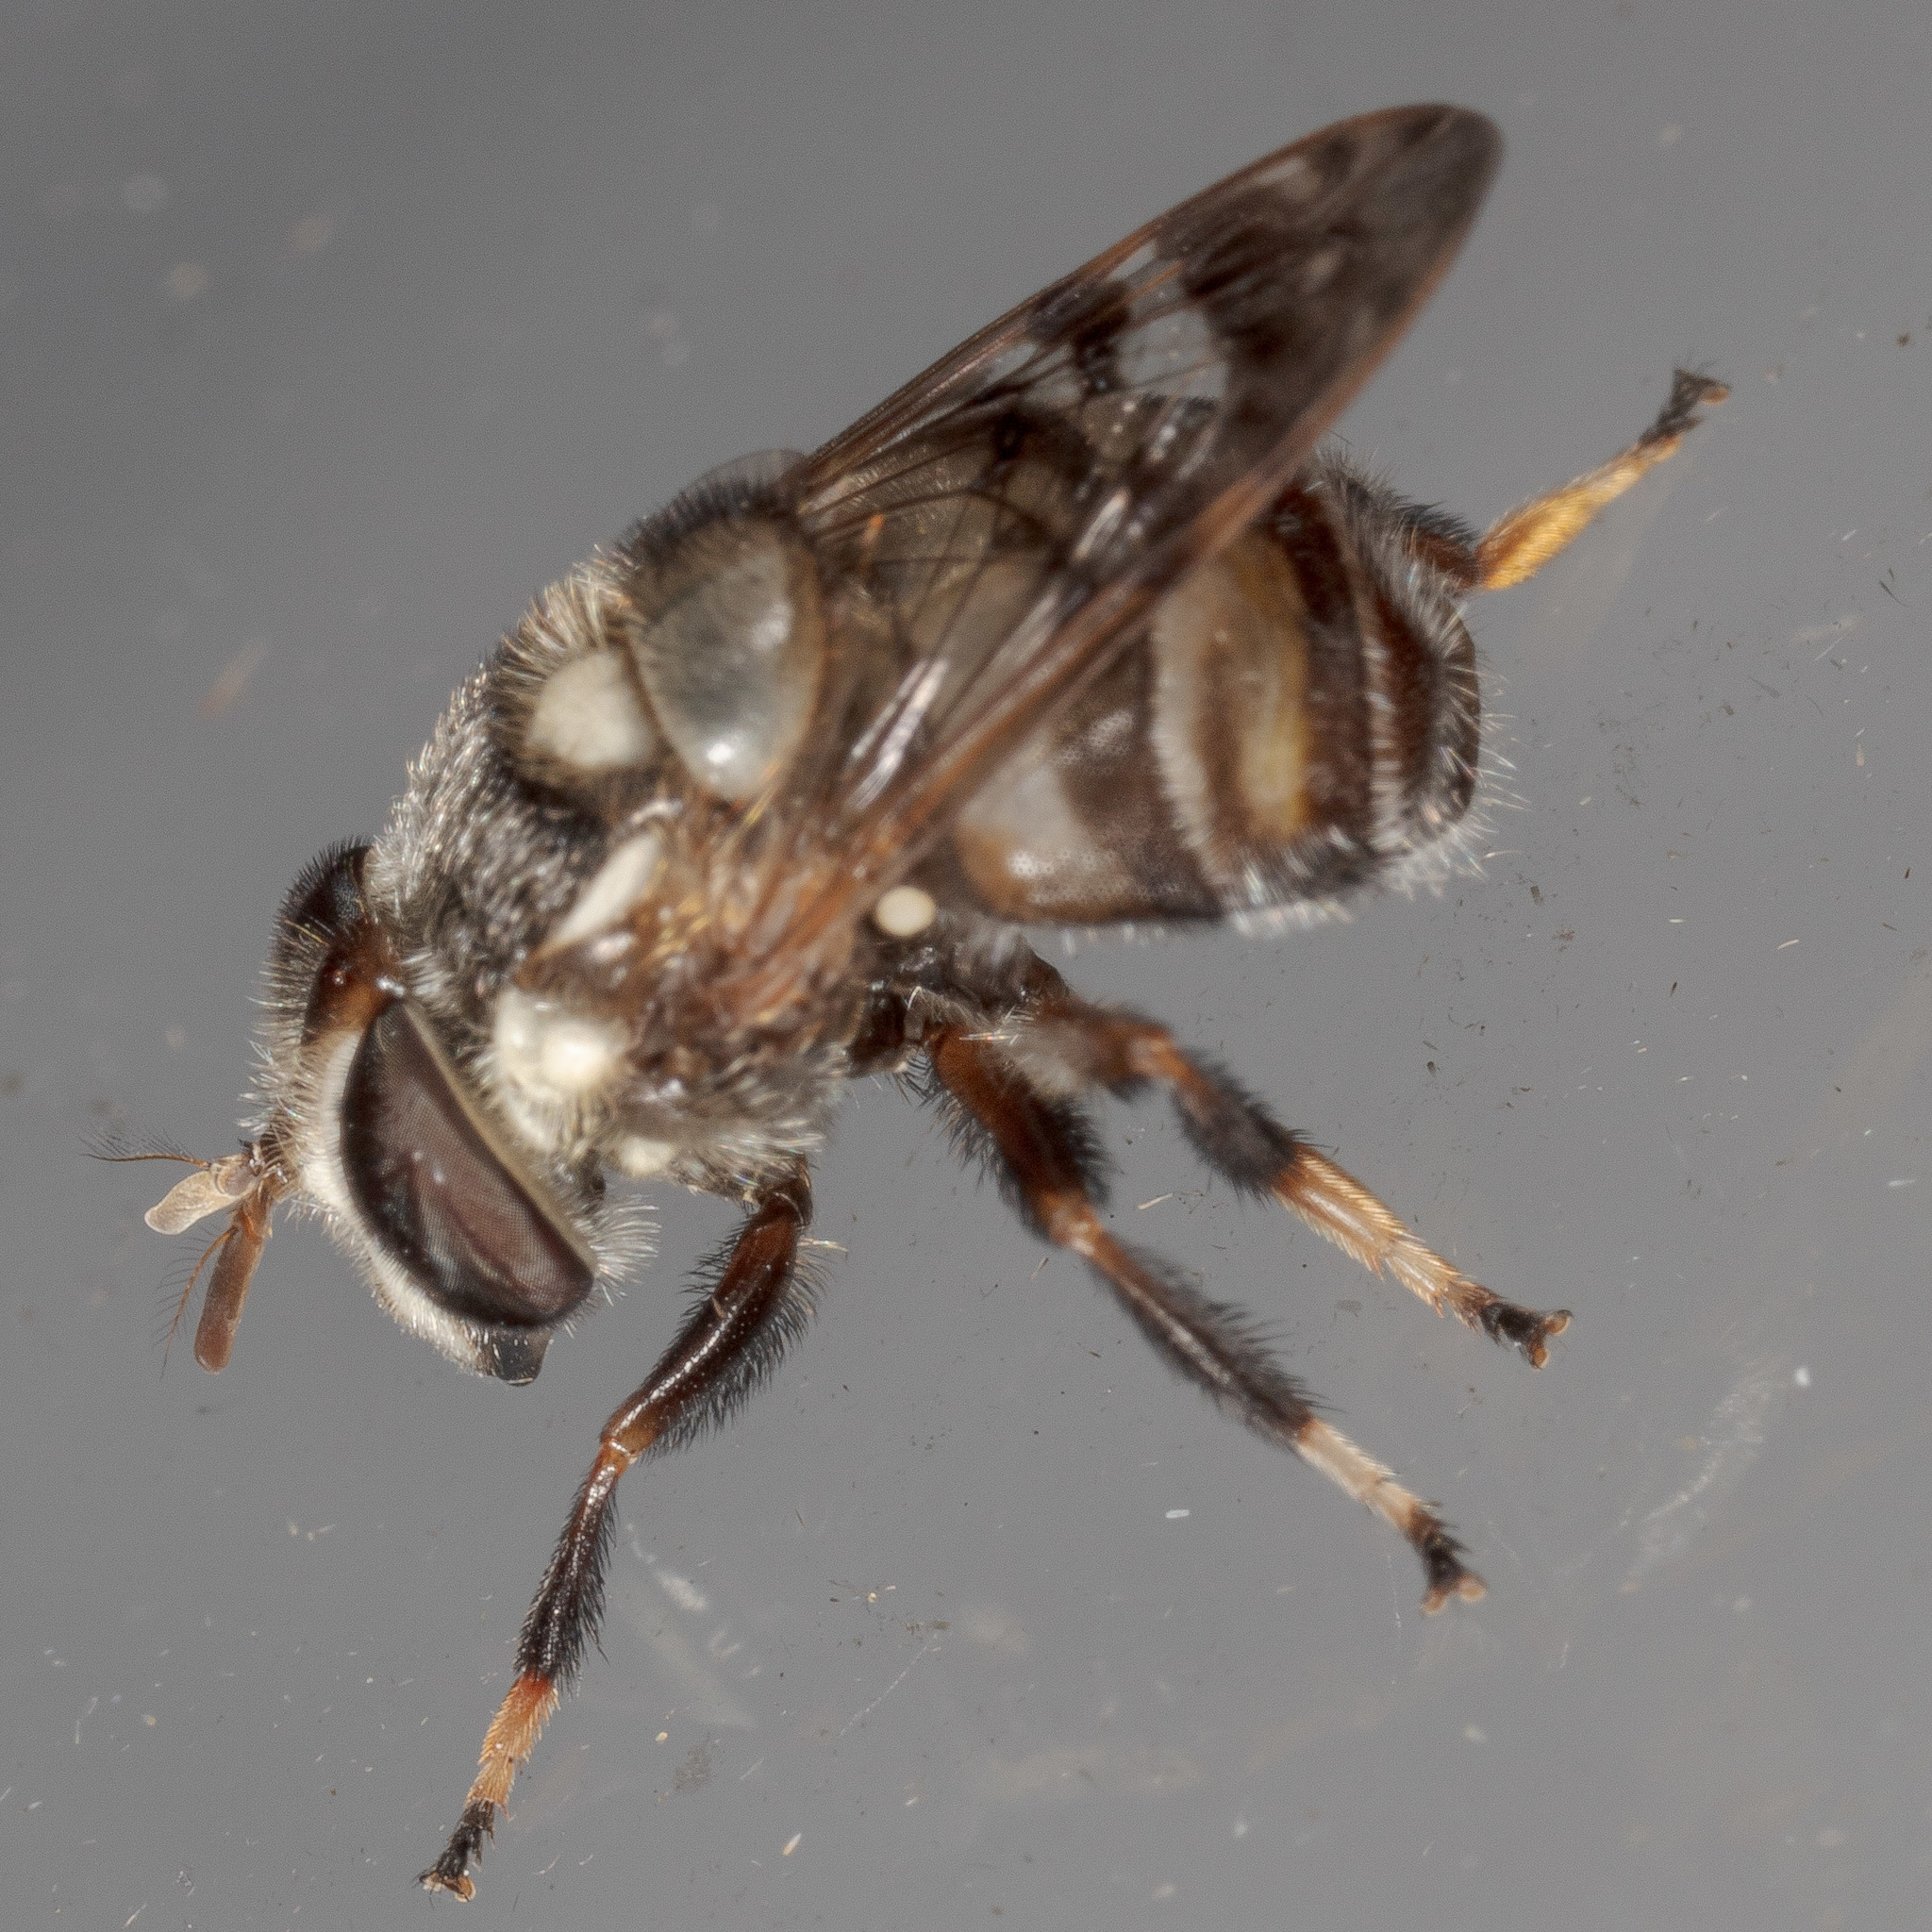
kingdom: Animalia
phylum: Arthropoda
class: Insecta
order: Diptera
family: Syrphidae
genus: Copestylum
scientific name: Copestylum tamaulipanum
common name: Syrphid fly
